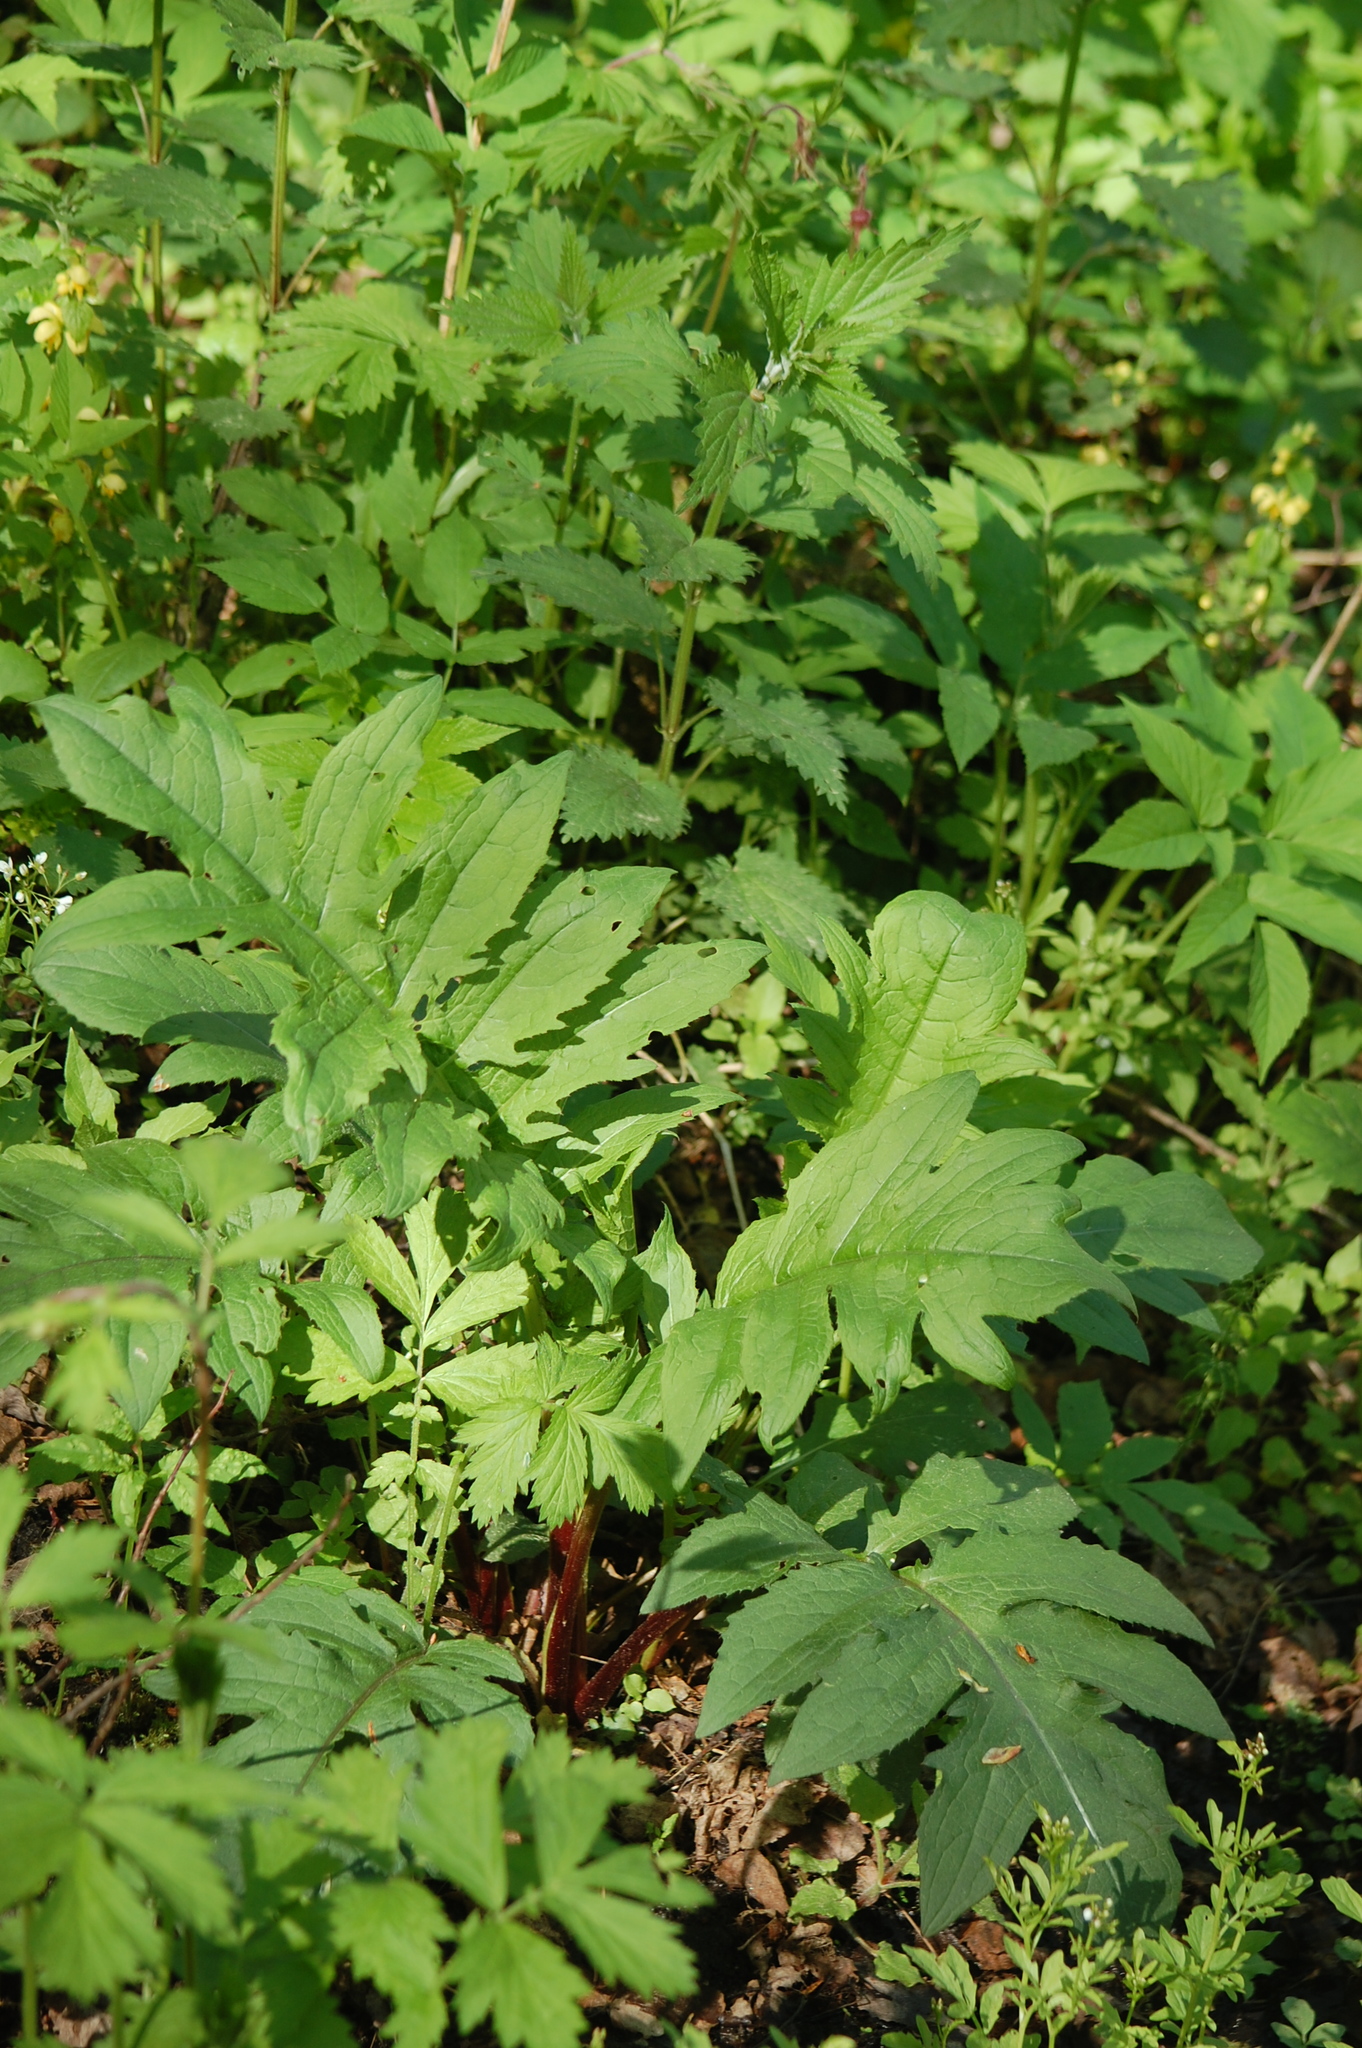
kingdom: Plantae
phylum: Tracheophyta
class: Magnoliopsida
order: Asterales
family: Asteraceae
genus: Cirsium
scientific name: Cirsium oleraceum
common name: Cabbage thistle
